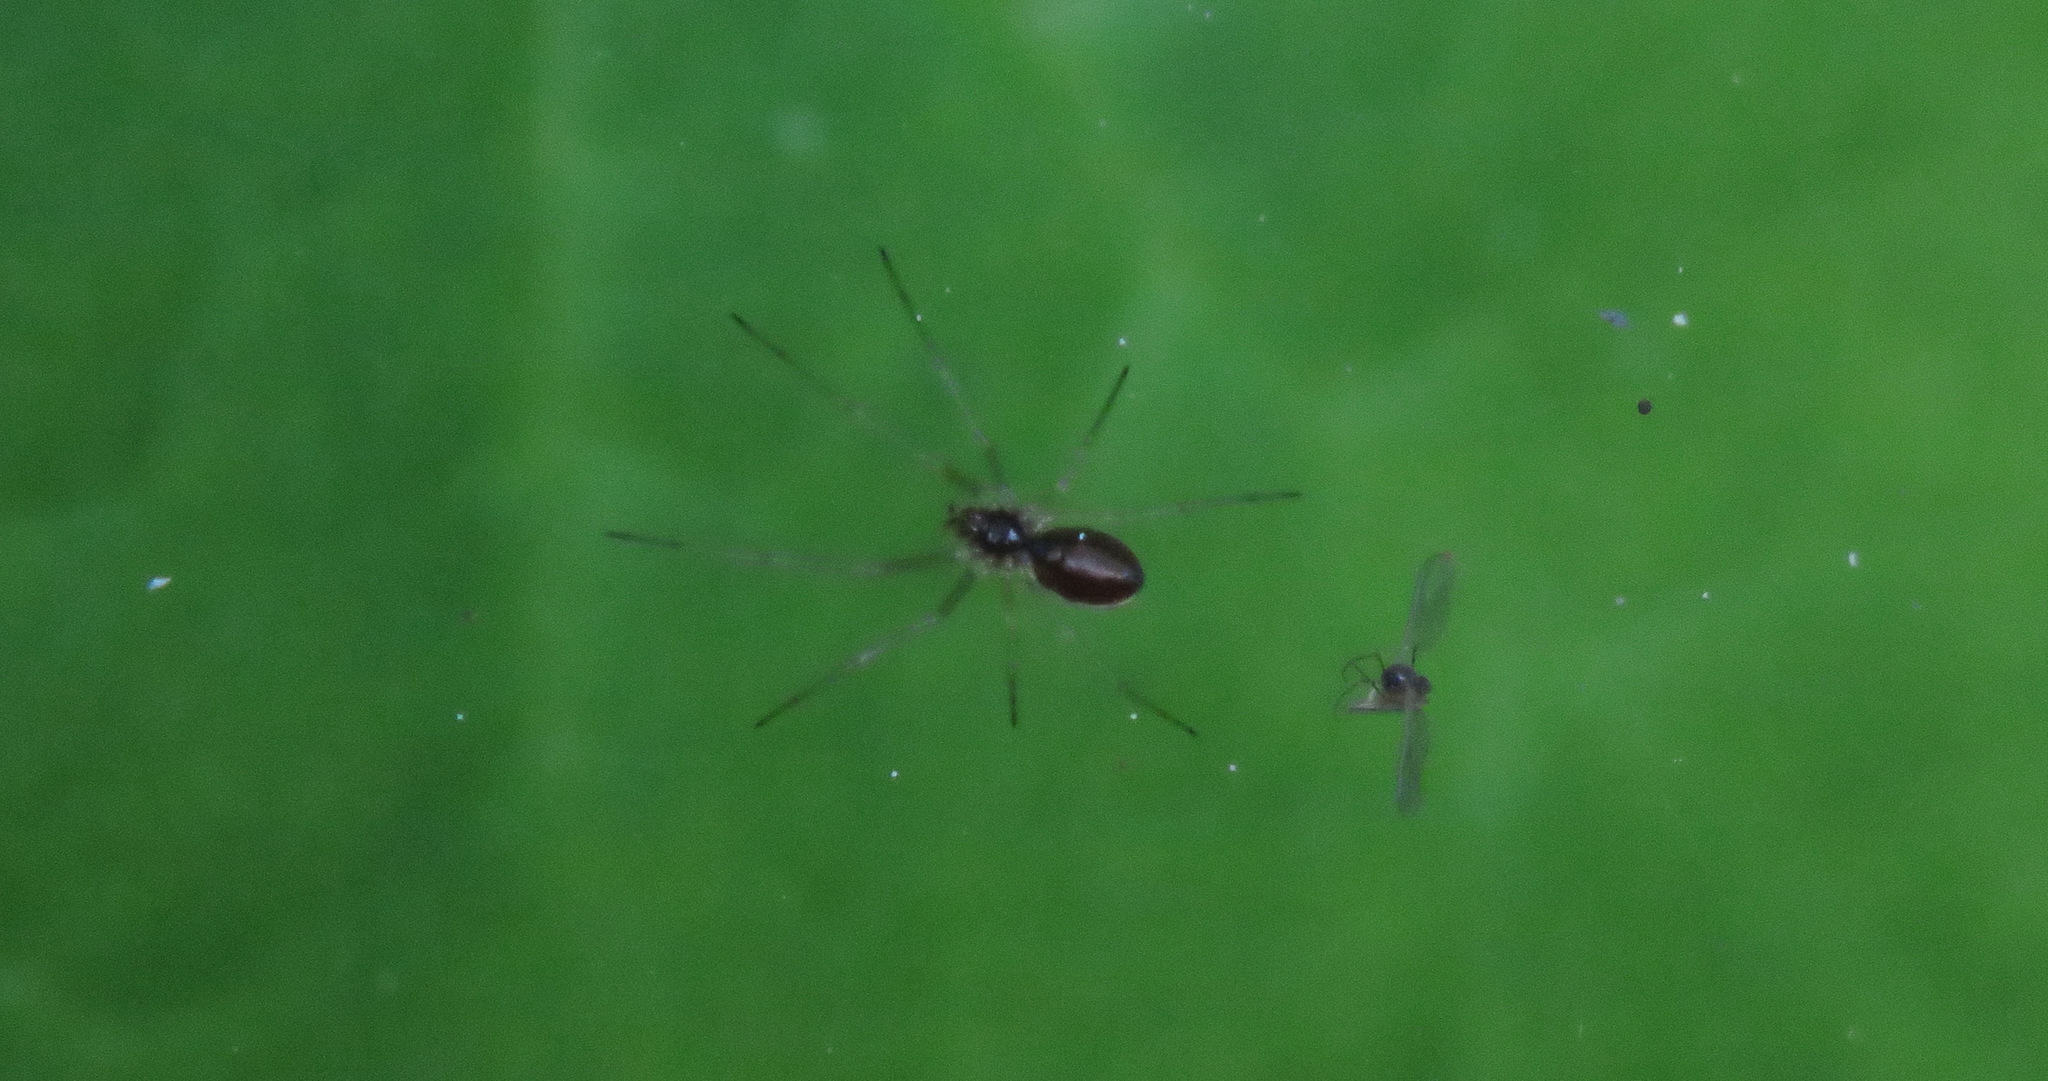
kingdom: Animalia
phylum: Arthropoda
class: Arachnida
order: Araneae
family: Linyphiidae
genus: Microlinyphia
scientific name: Microlinyphia dana
